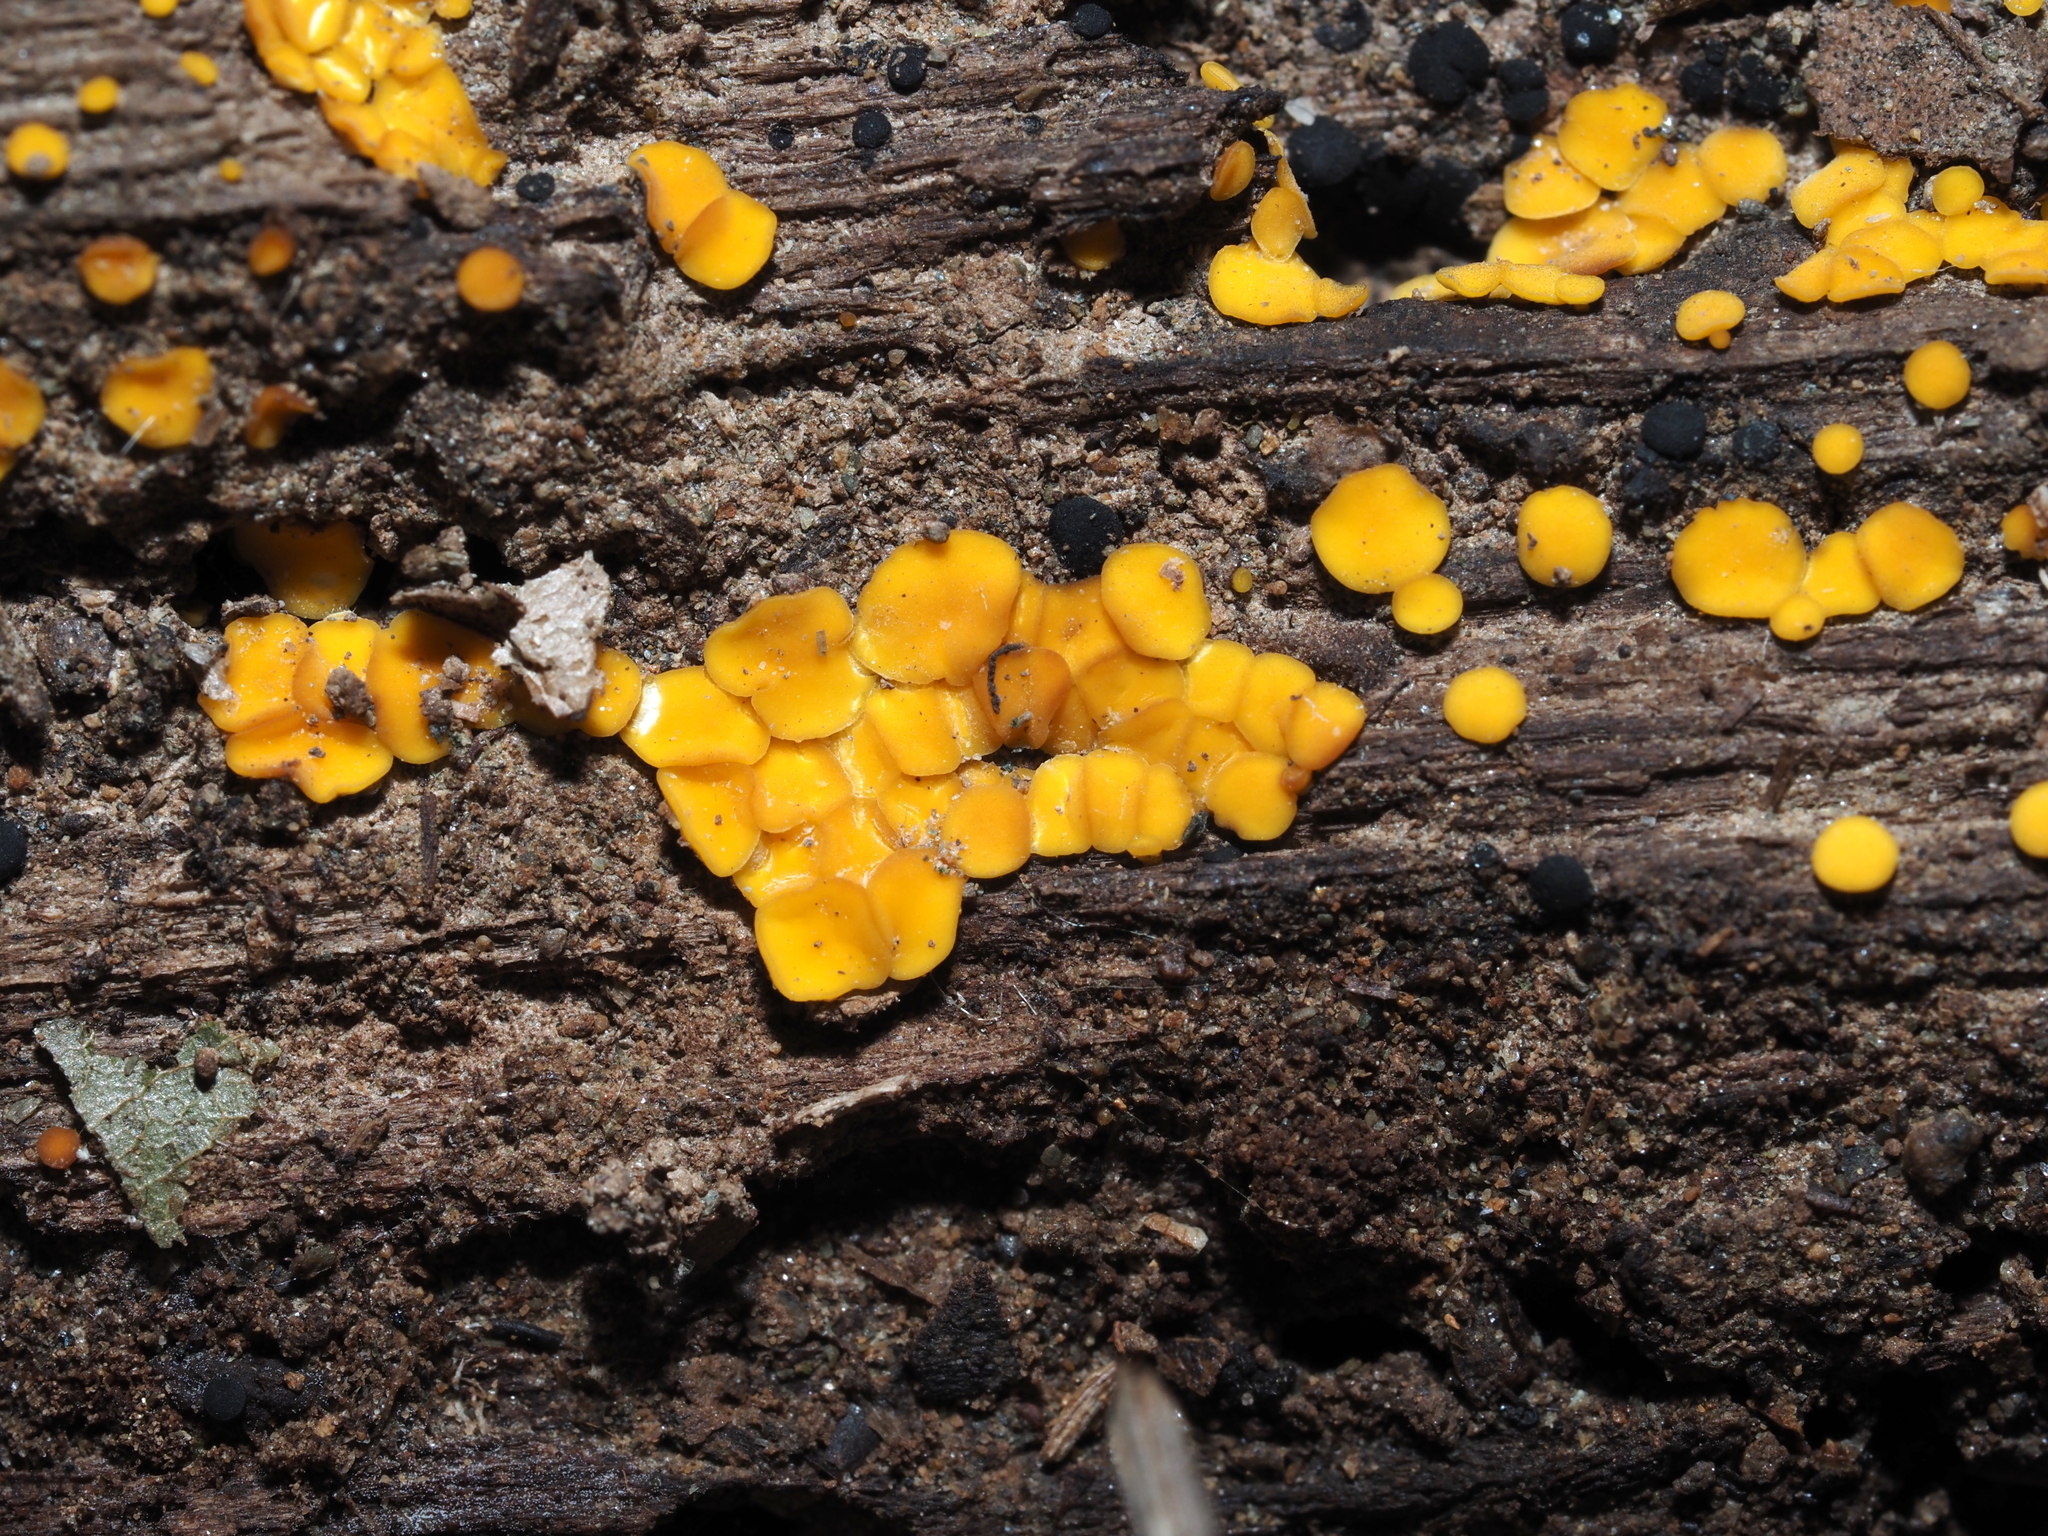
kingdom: Fungi
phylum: Ascomycota
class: Leotiomycetes
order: Helotiales
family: Pezizellaceae
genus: Calycina
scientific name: Calycina citrina
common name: Yellow fairy cups
